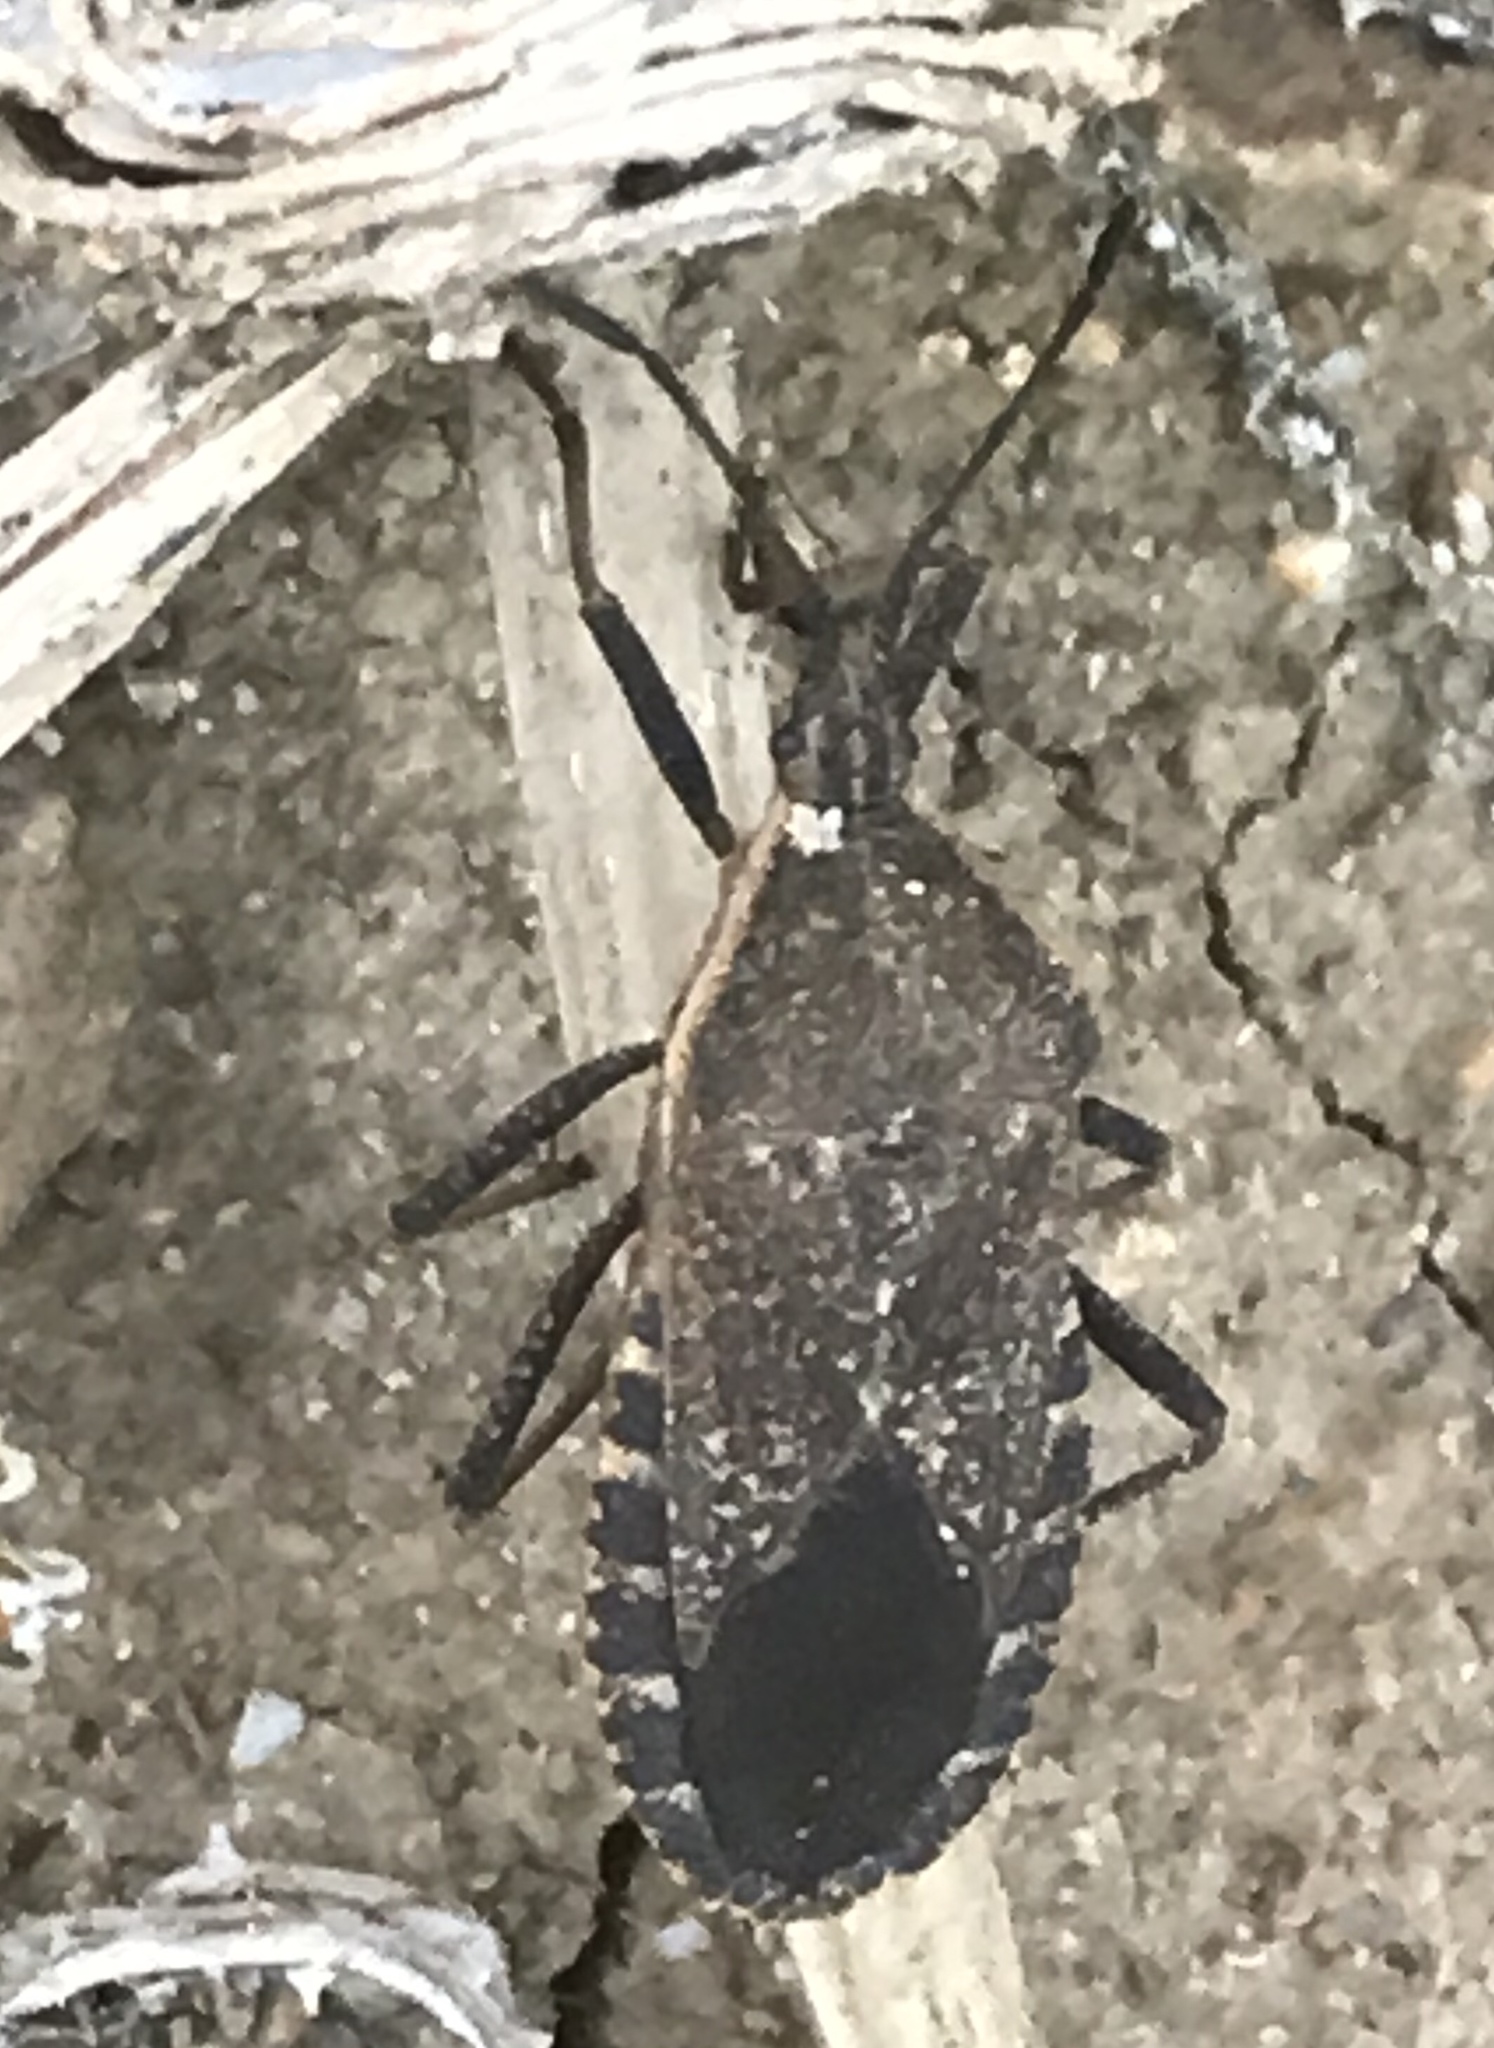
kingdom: Animalia
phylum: Arthropoda
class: Insecta
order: Hemiptera
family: Coreidae
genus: Anasa
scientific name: Anasa tristis
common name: Squash bug
